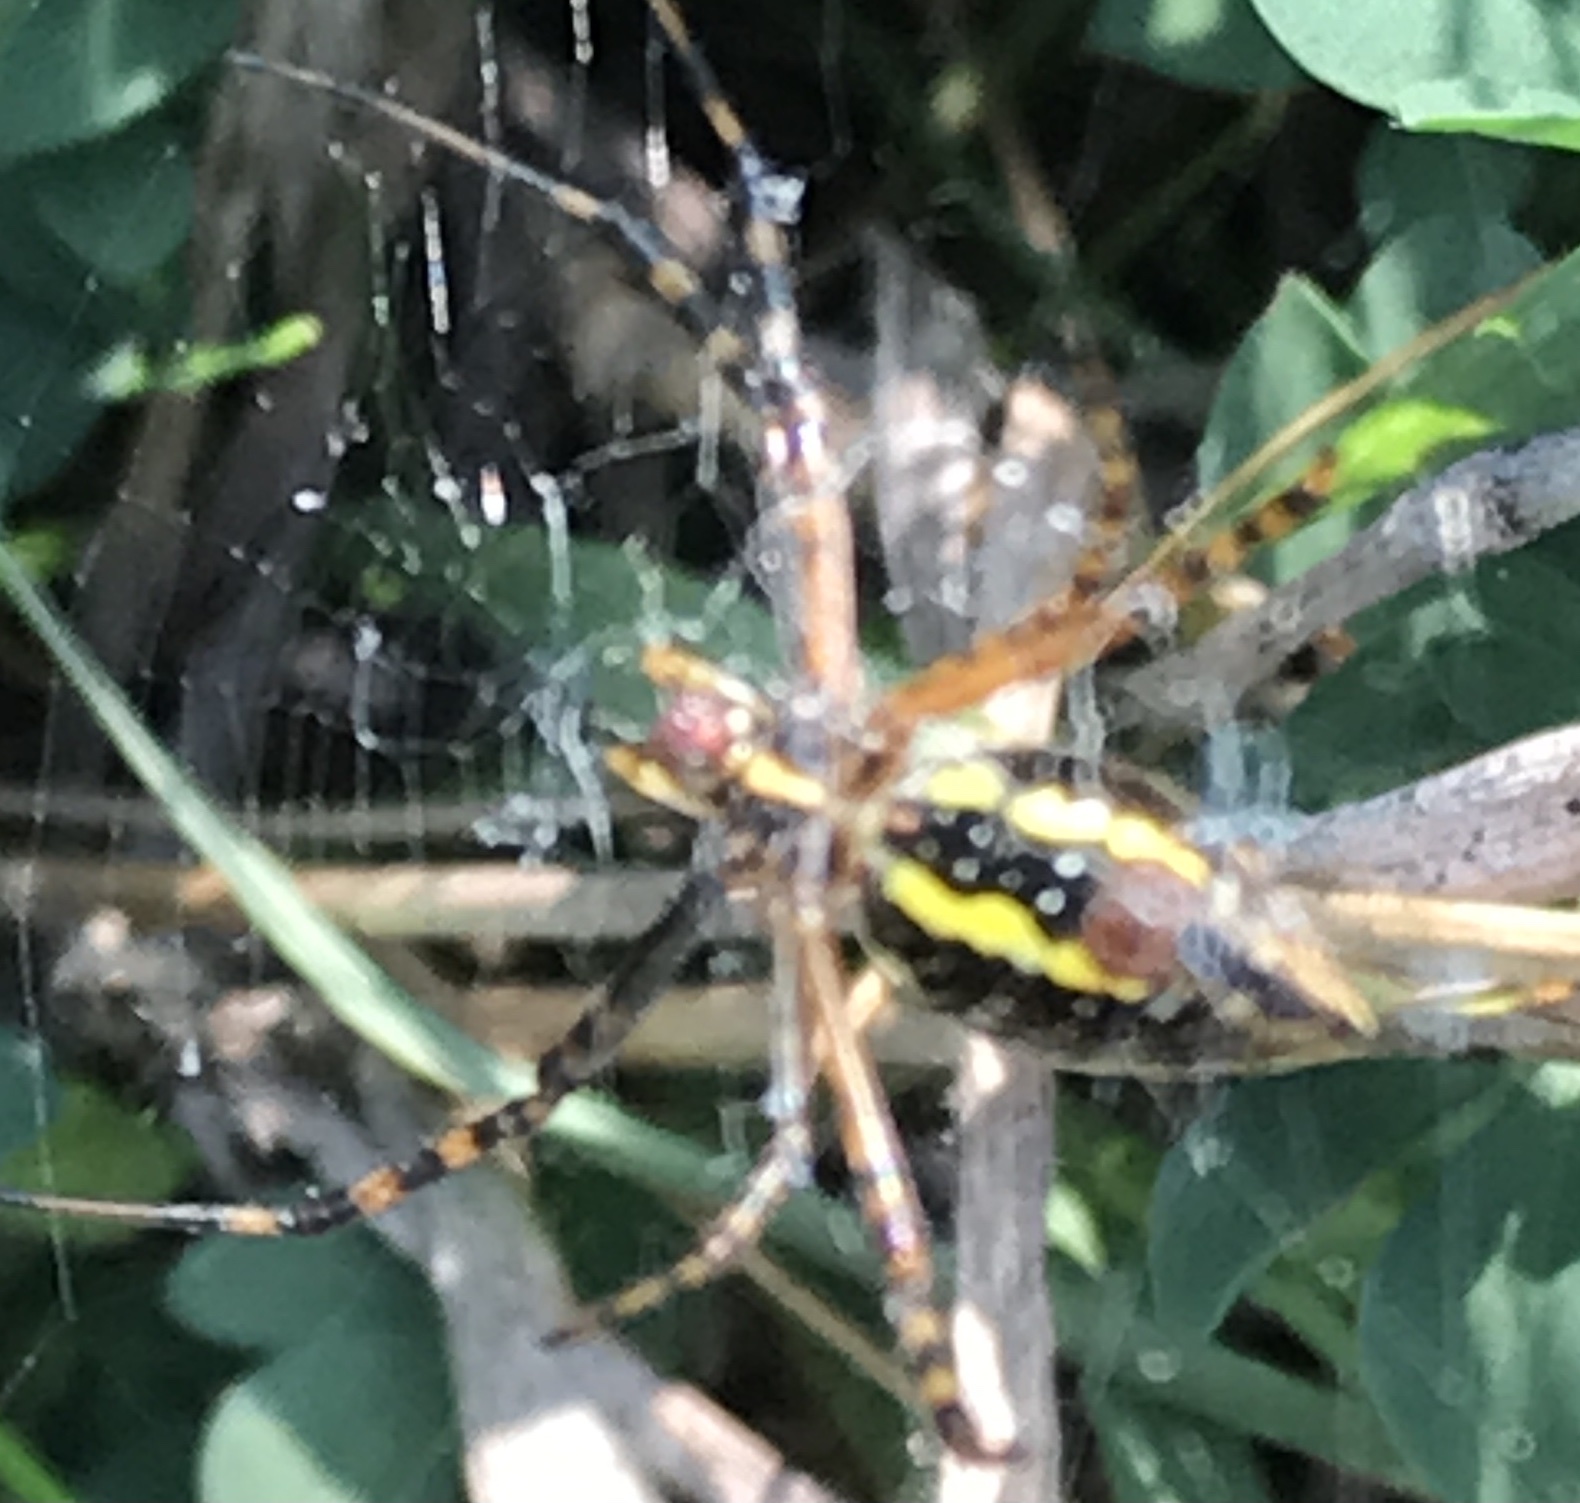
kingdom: Animalia
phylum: Arthropoda
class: Arachnida
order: Araneae
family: Araneidae
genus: Argiope
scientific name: Argiope trifasciata
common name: Banded garden spider
